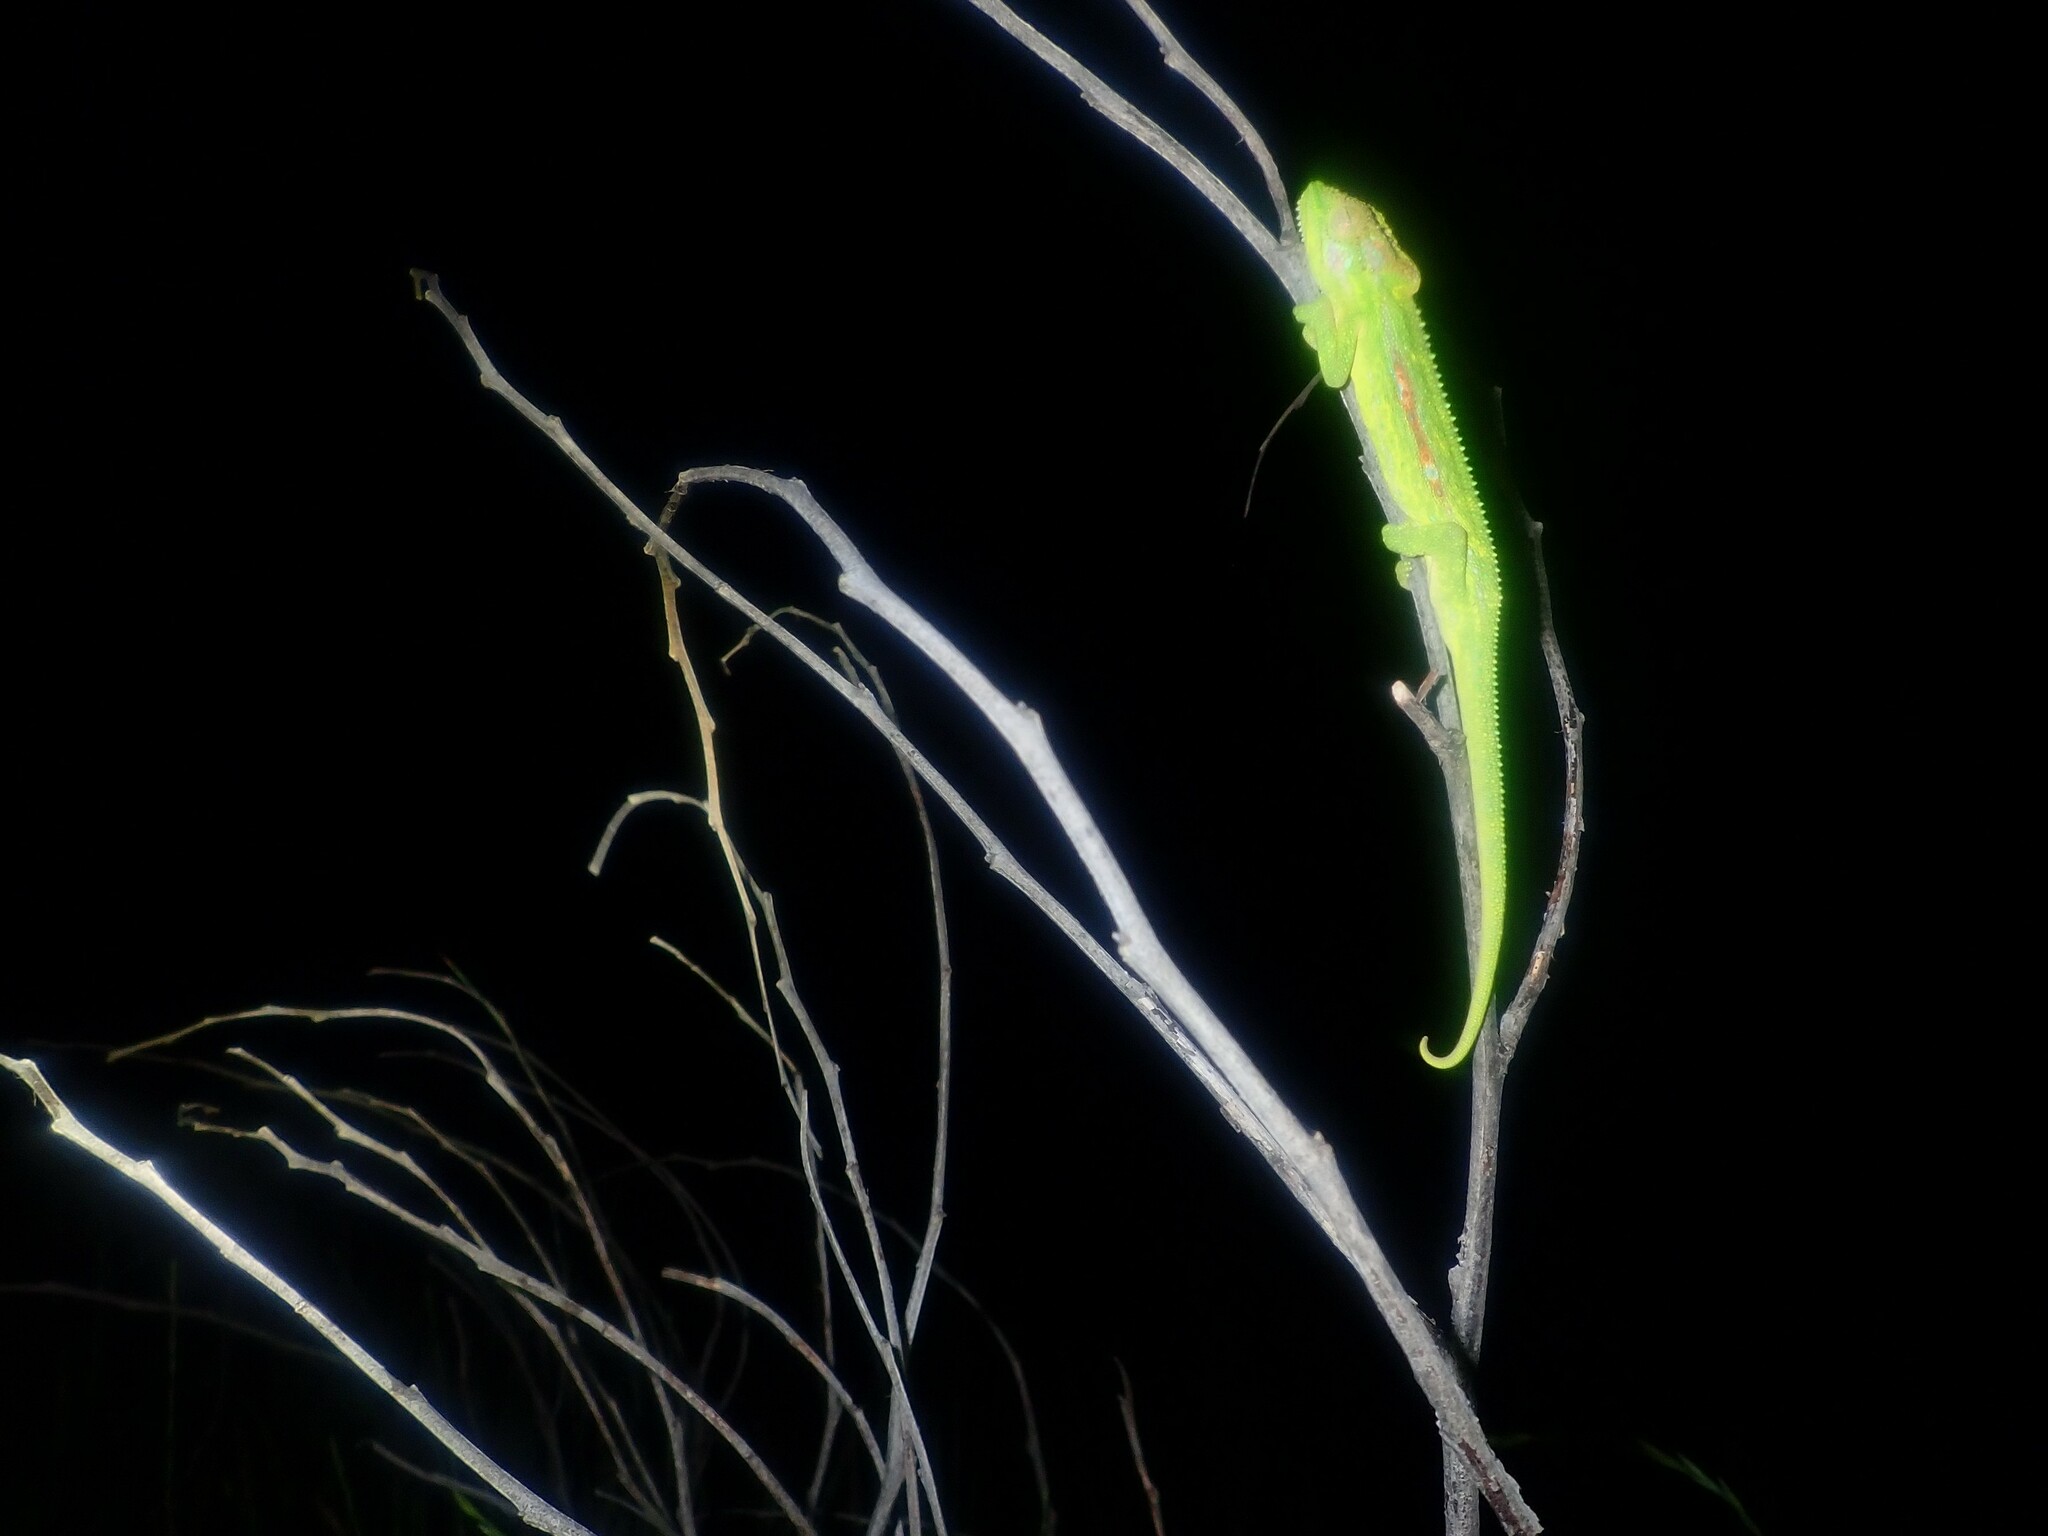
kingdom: Animalia
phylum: Chordata
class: Squamata
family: Chamaeleonidae
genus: Bradypodion
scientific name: Bradypodion pumilum
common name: Cape dwarf chameleon
